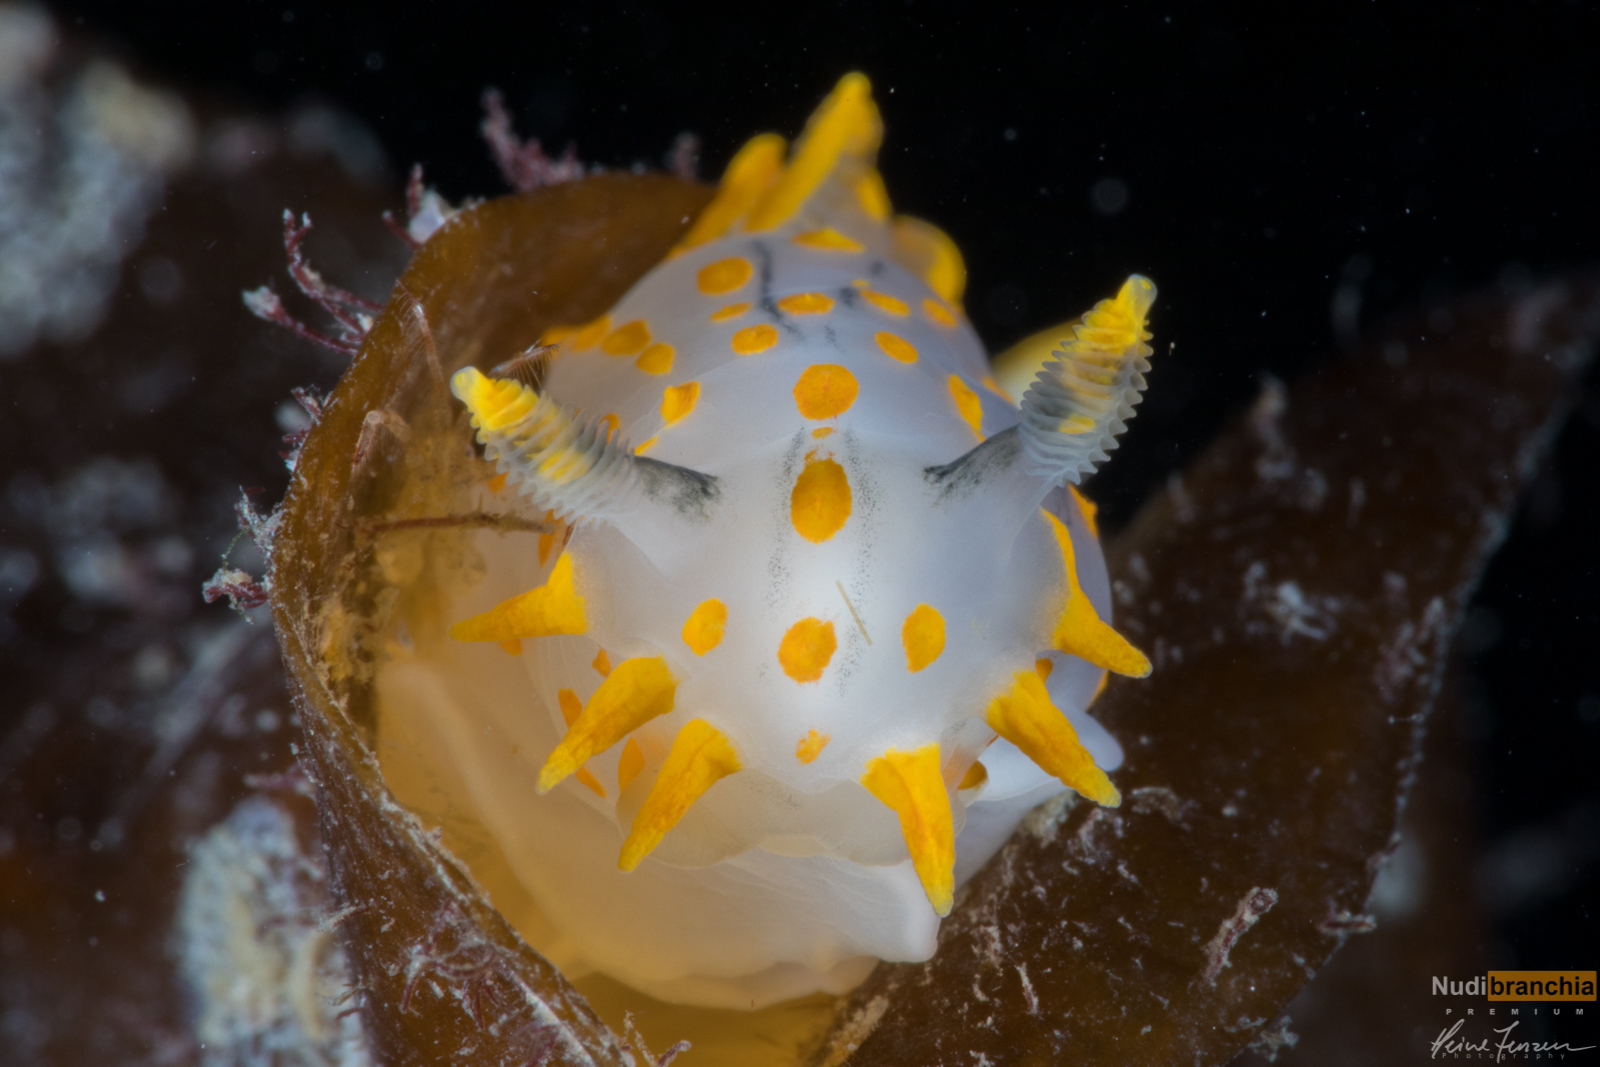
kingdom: Animalia
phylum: Mollusca
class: Gastropoda
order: Nudibranchia
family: Polyceridae
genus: Polycera
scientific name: Polycera quadrilineata
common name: Four-striped polycera
